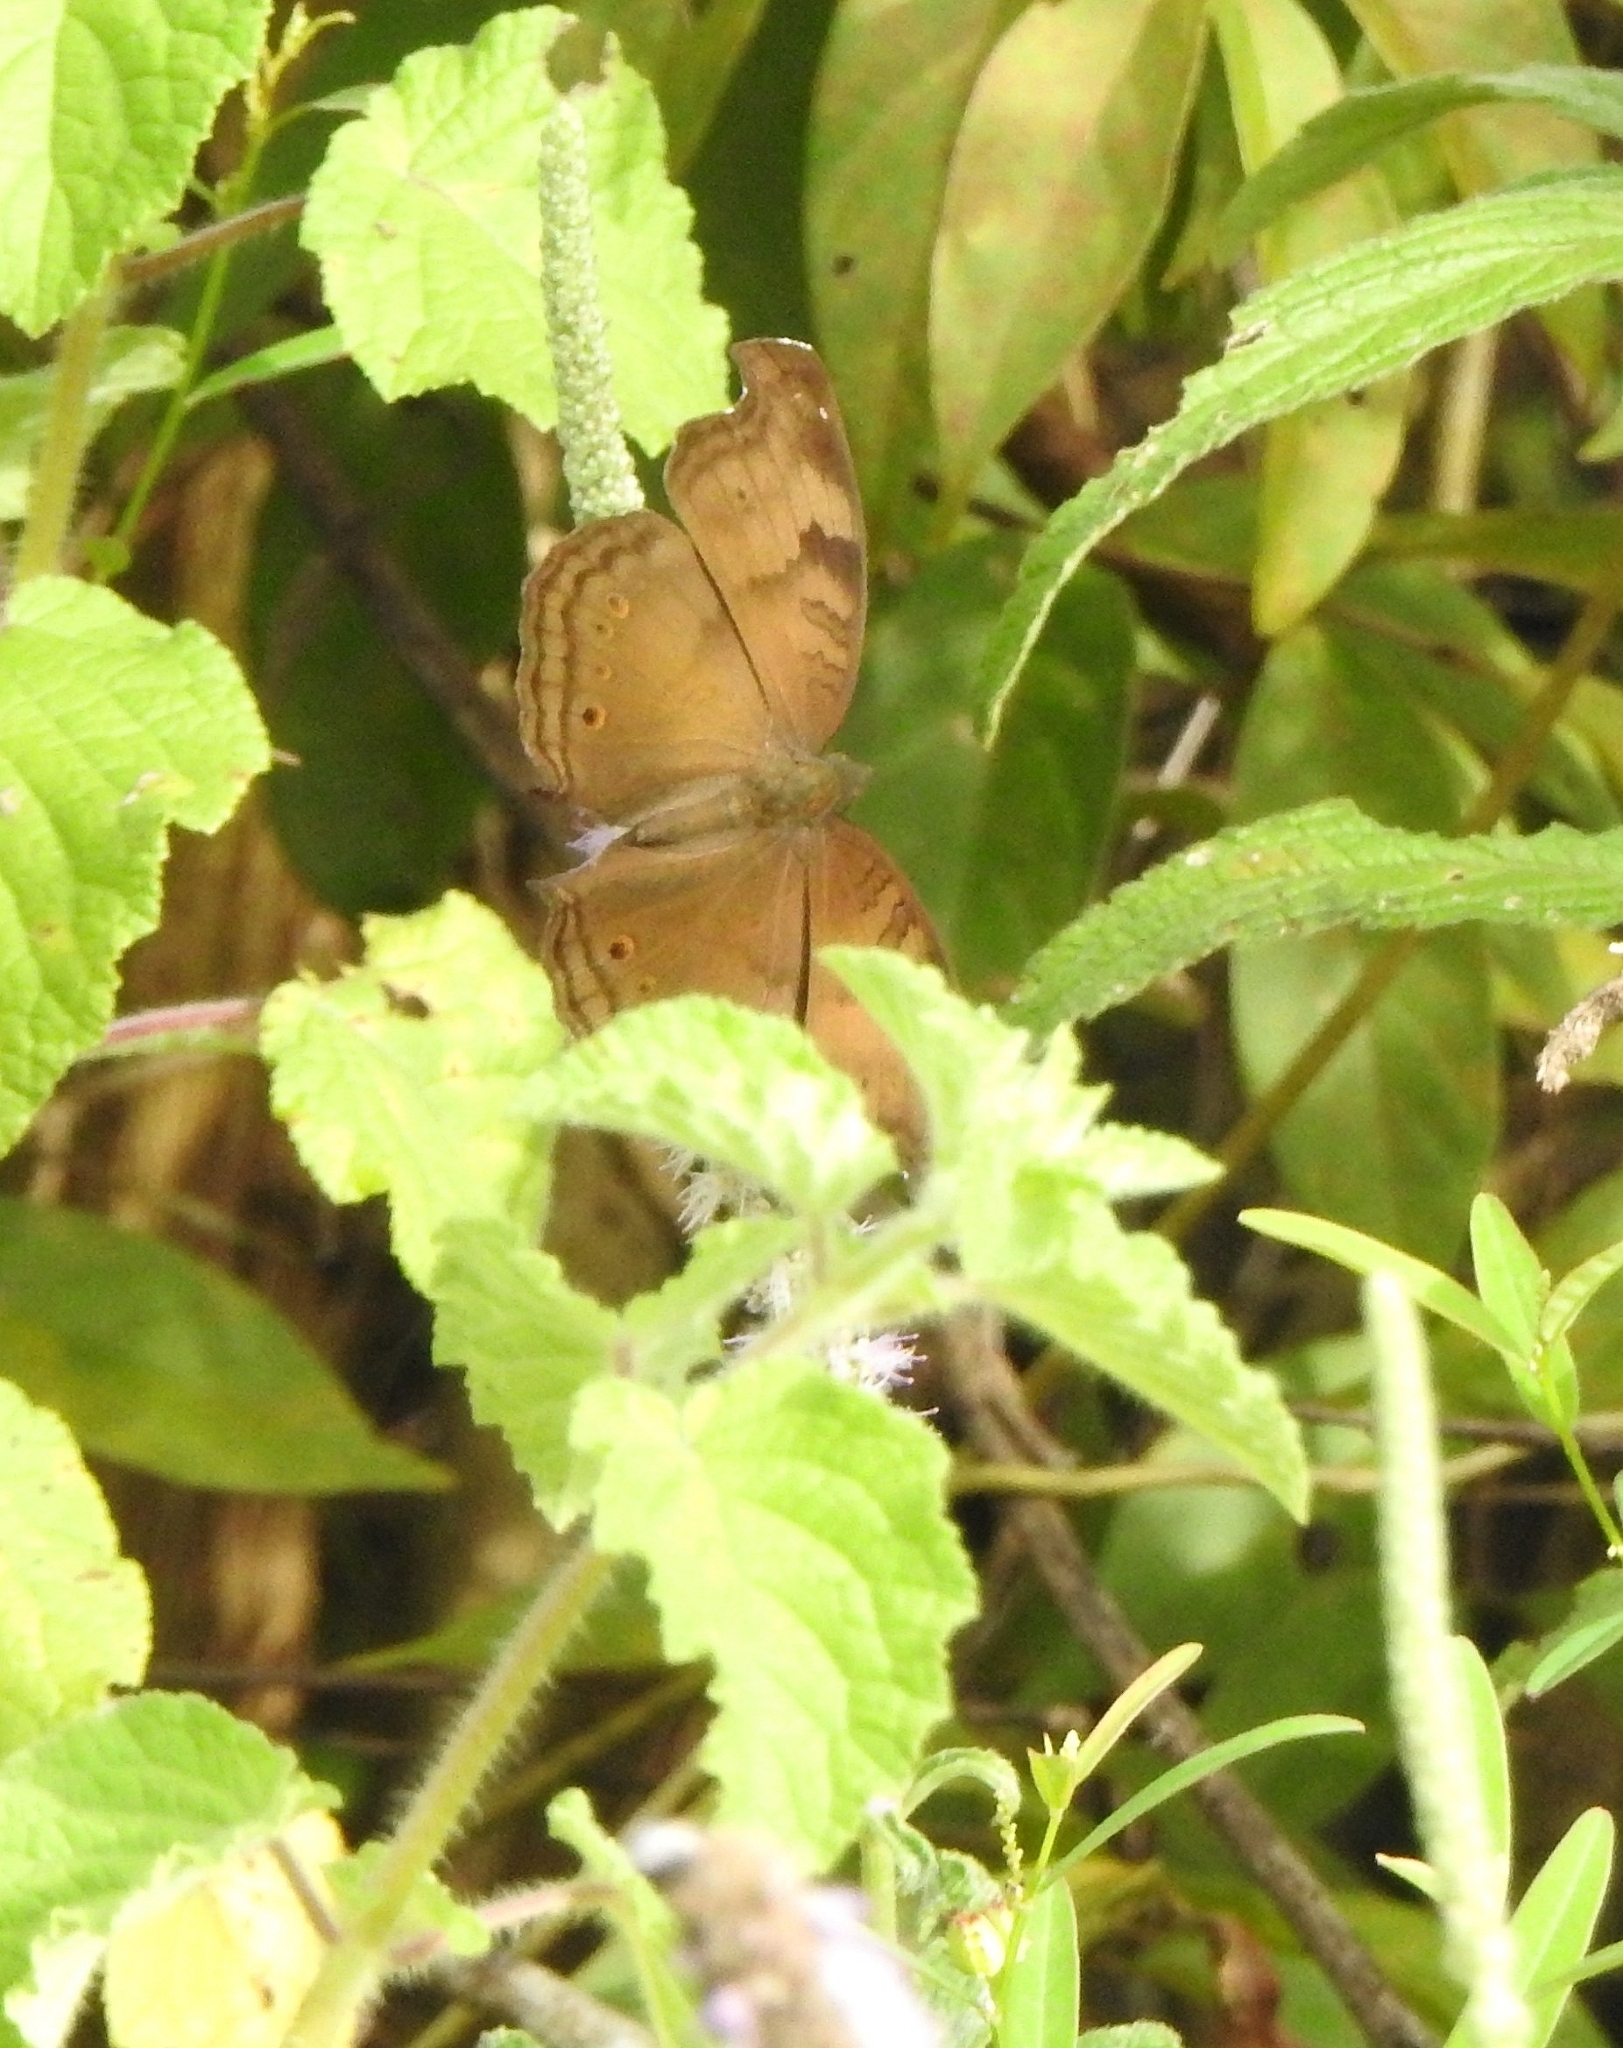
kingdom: Animalia
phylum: Arthropoda
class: Insecta
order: Lepidoptera
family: Nymphalidae
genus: Junonia
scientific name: Junonia iphita
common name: Chocolate pansy
